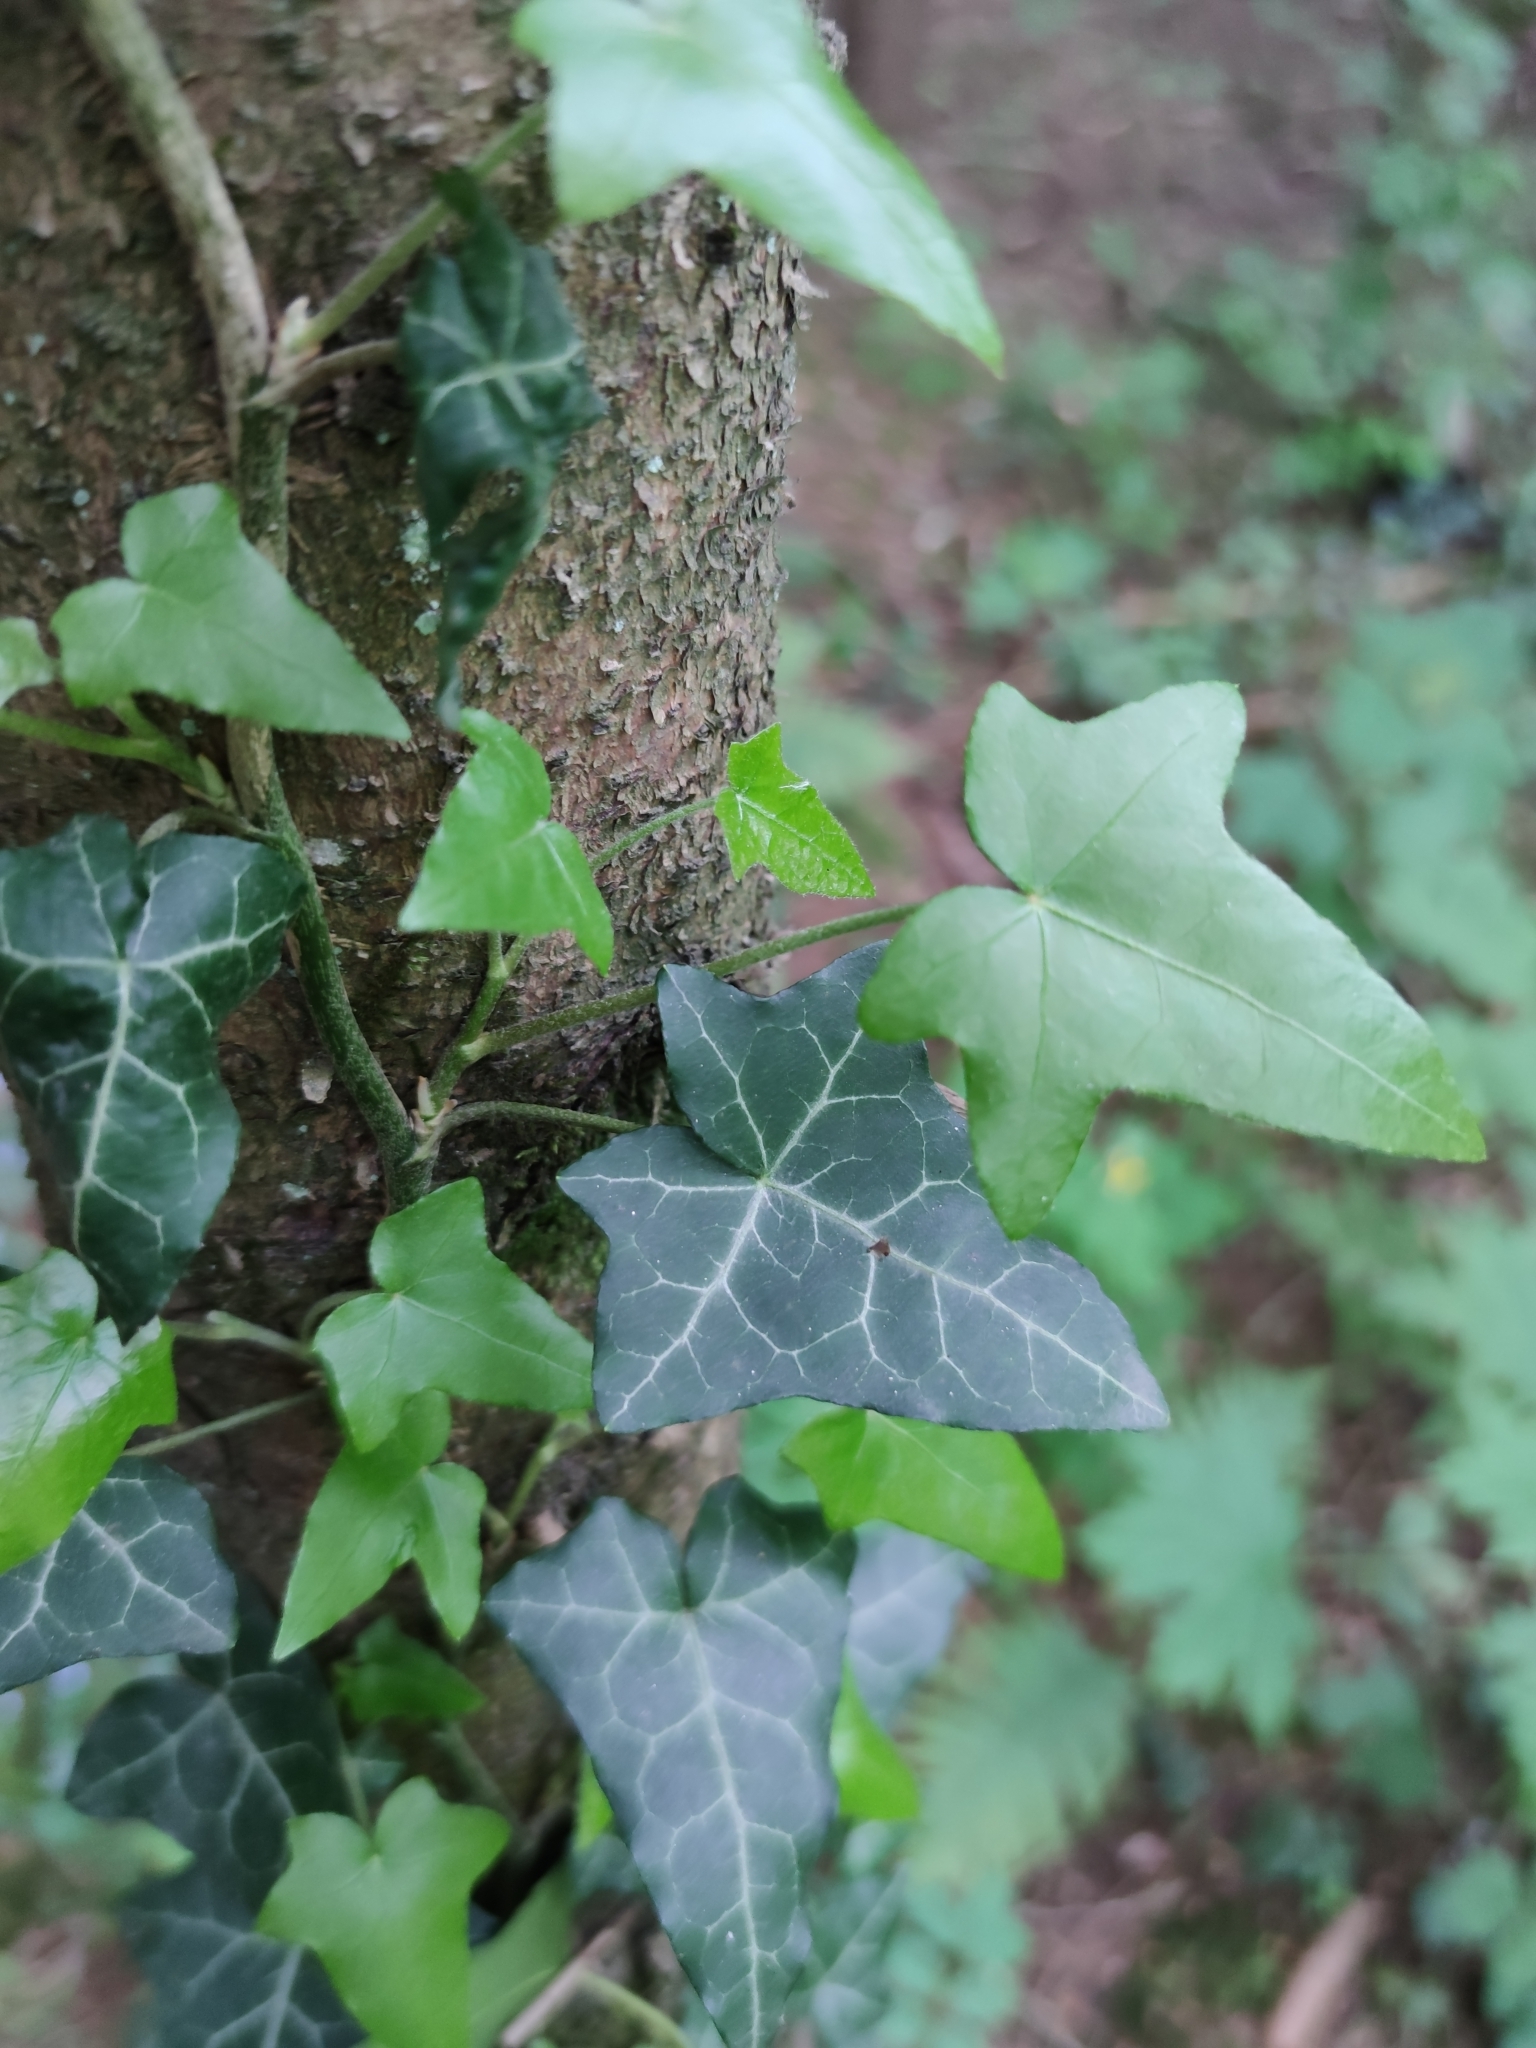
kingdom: Plantae
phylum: Tracheophyta
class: Magnoliopsida
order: Apiales
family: Araliaceae
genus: Hedera
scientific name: Hedera helix
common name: Ivy
